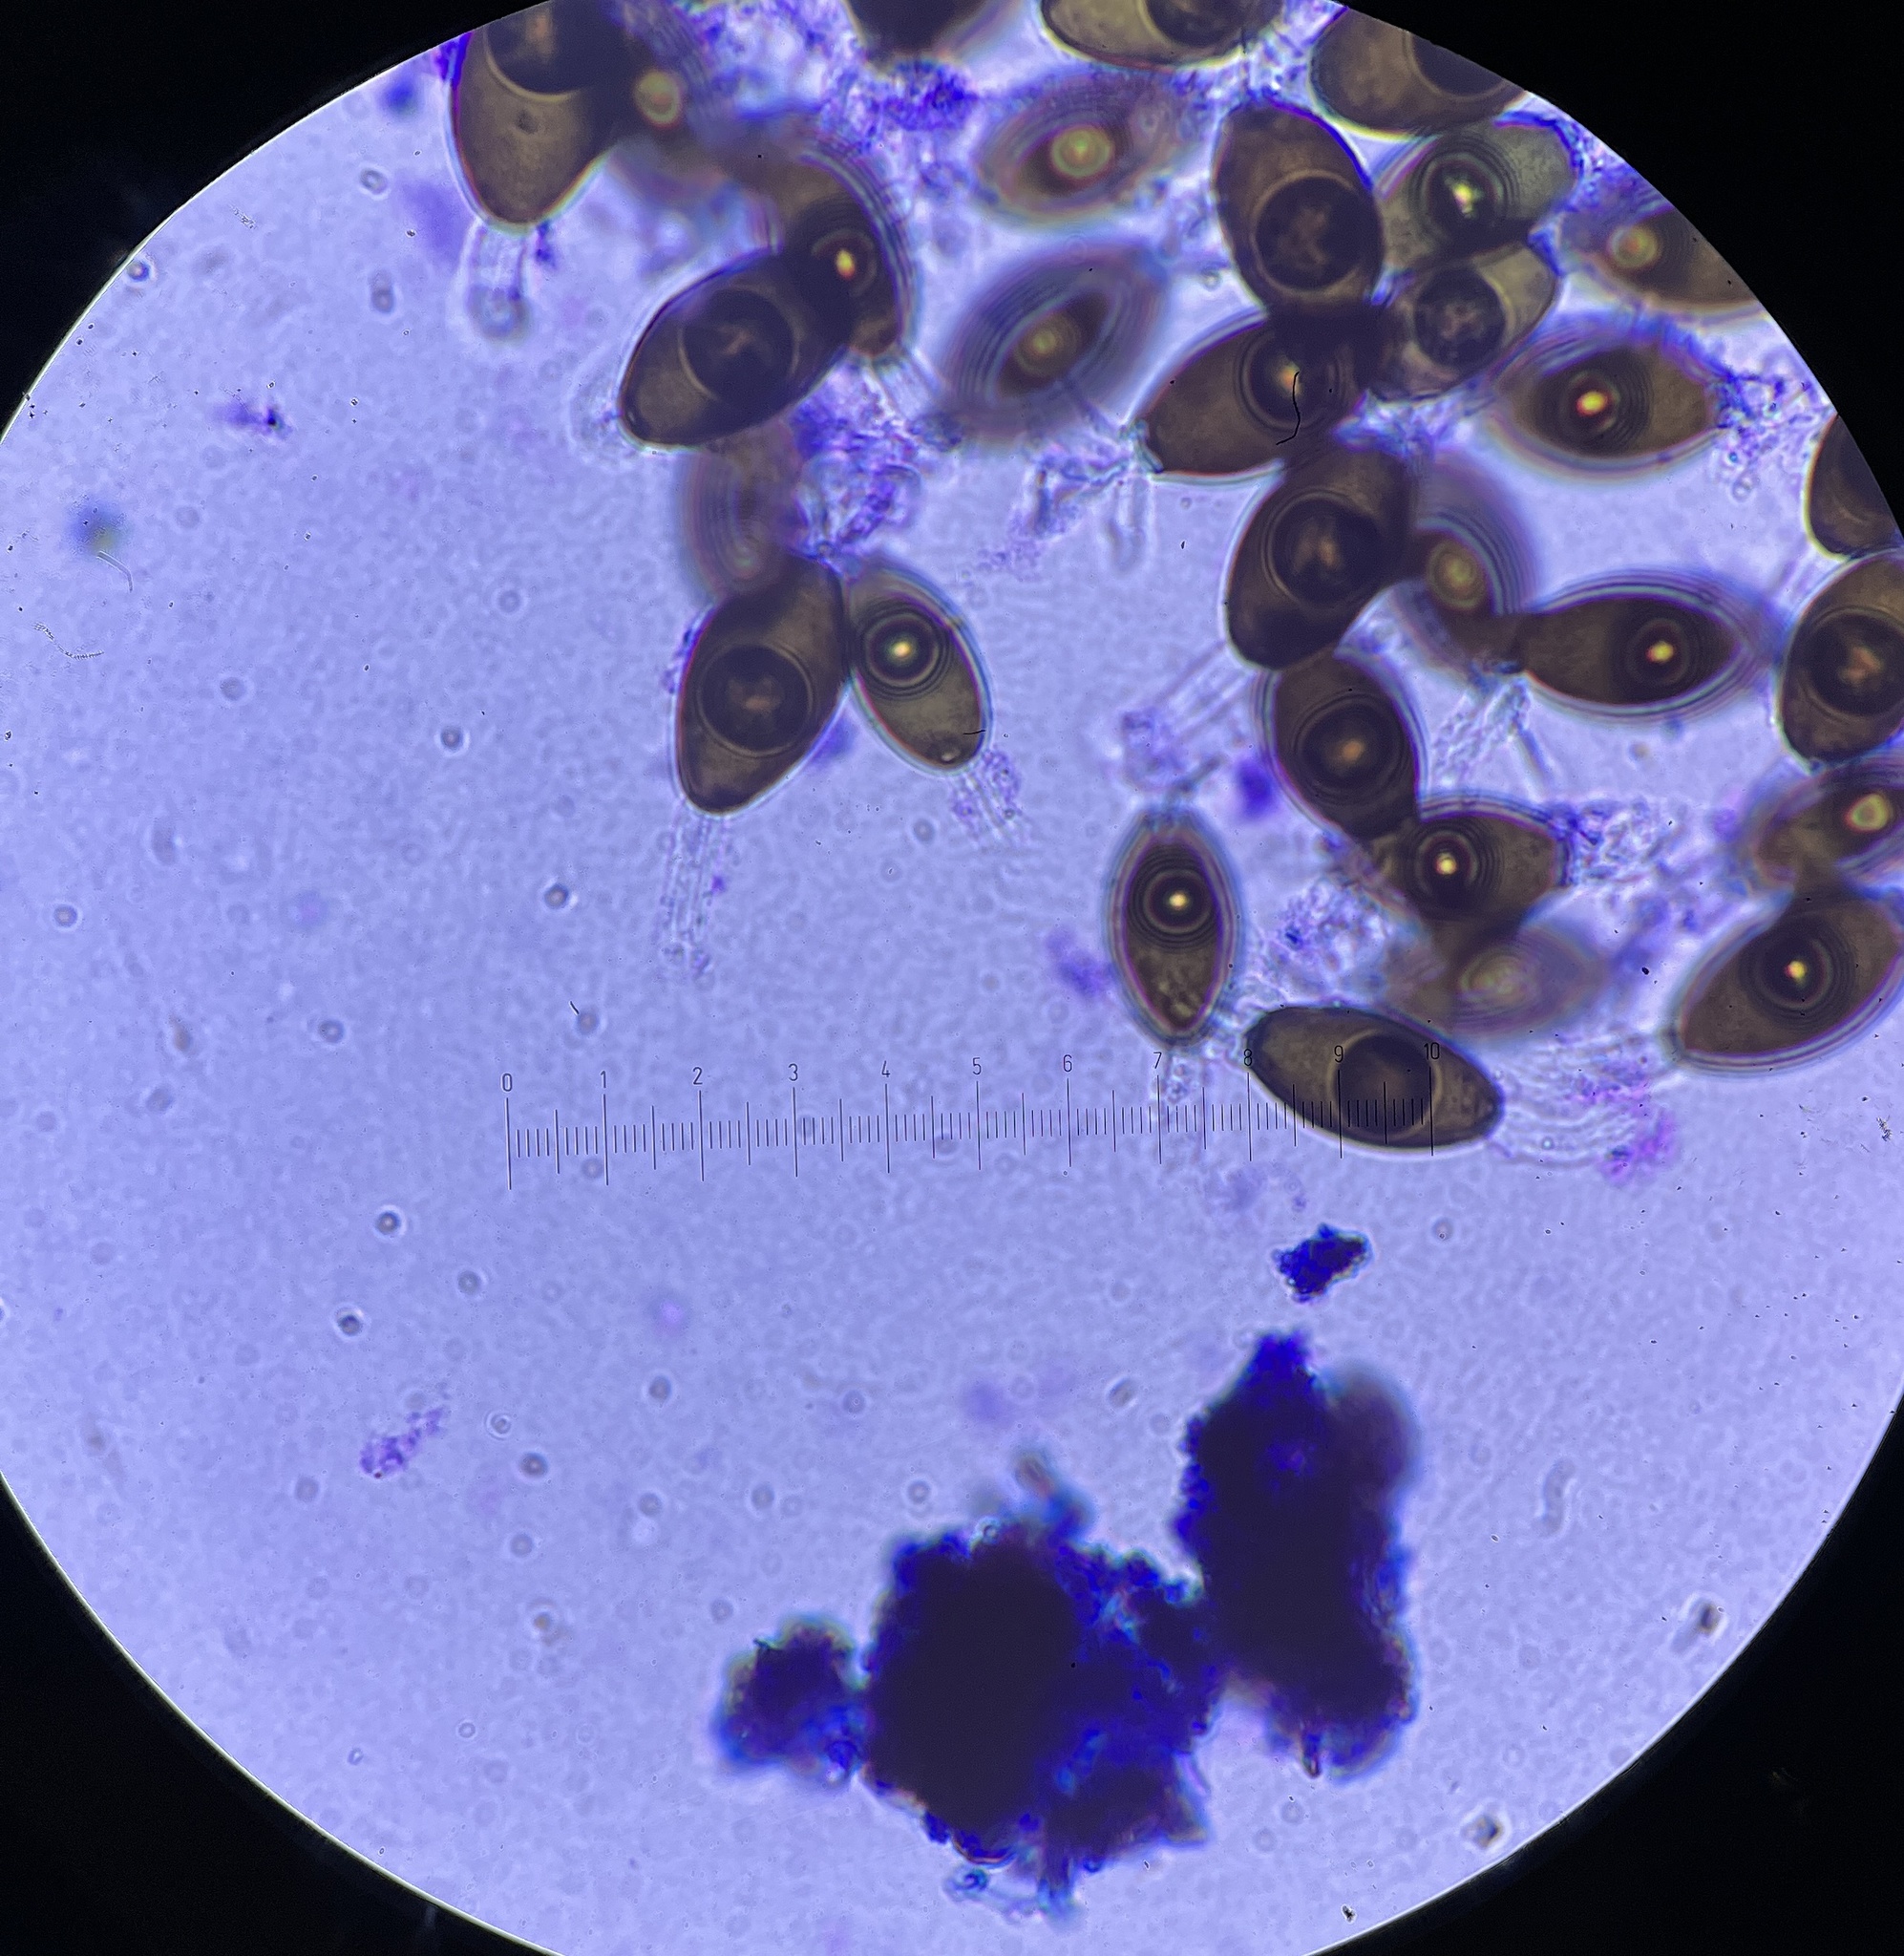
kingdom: Fungi
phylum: Ascomycota
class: Sordariomycetes
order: Sordariales
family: Naviculisporaceae
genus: Rhypophila
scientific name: Rhypophila myriospora
